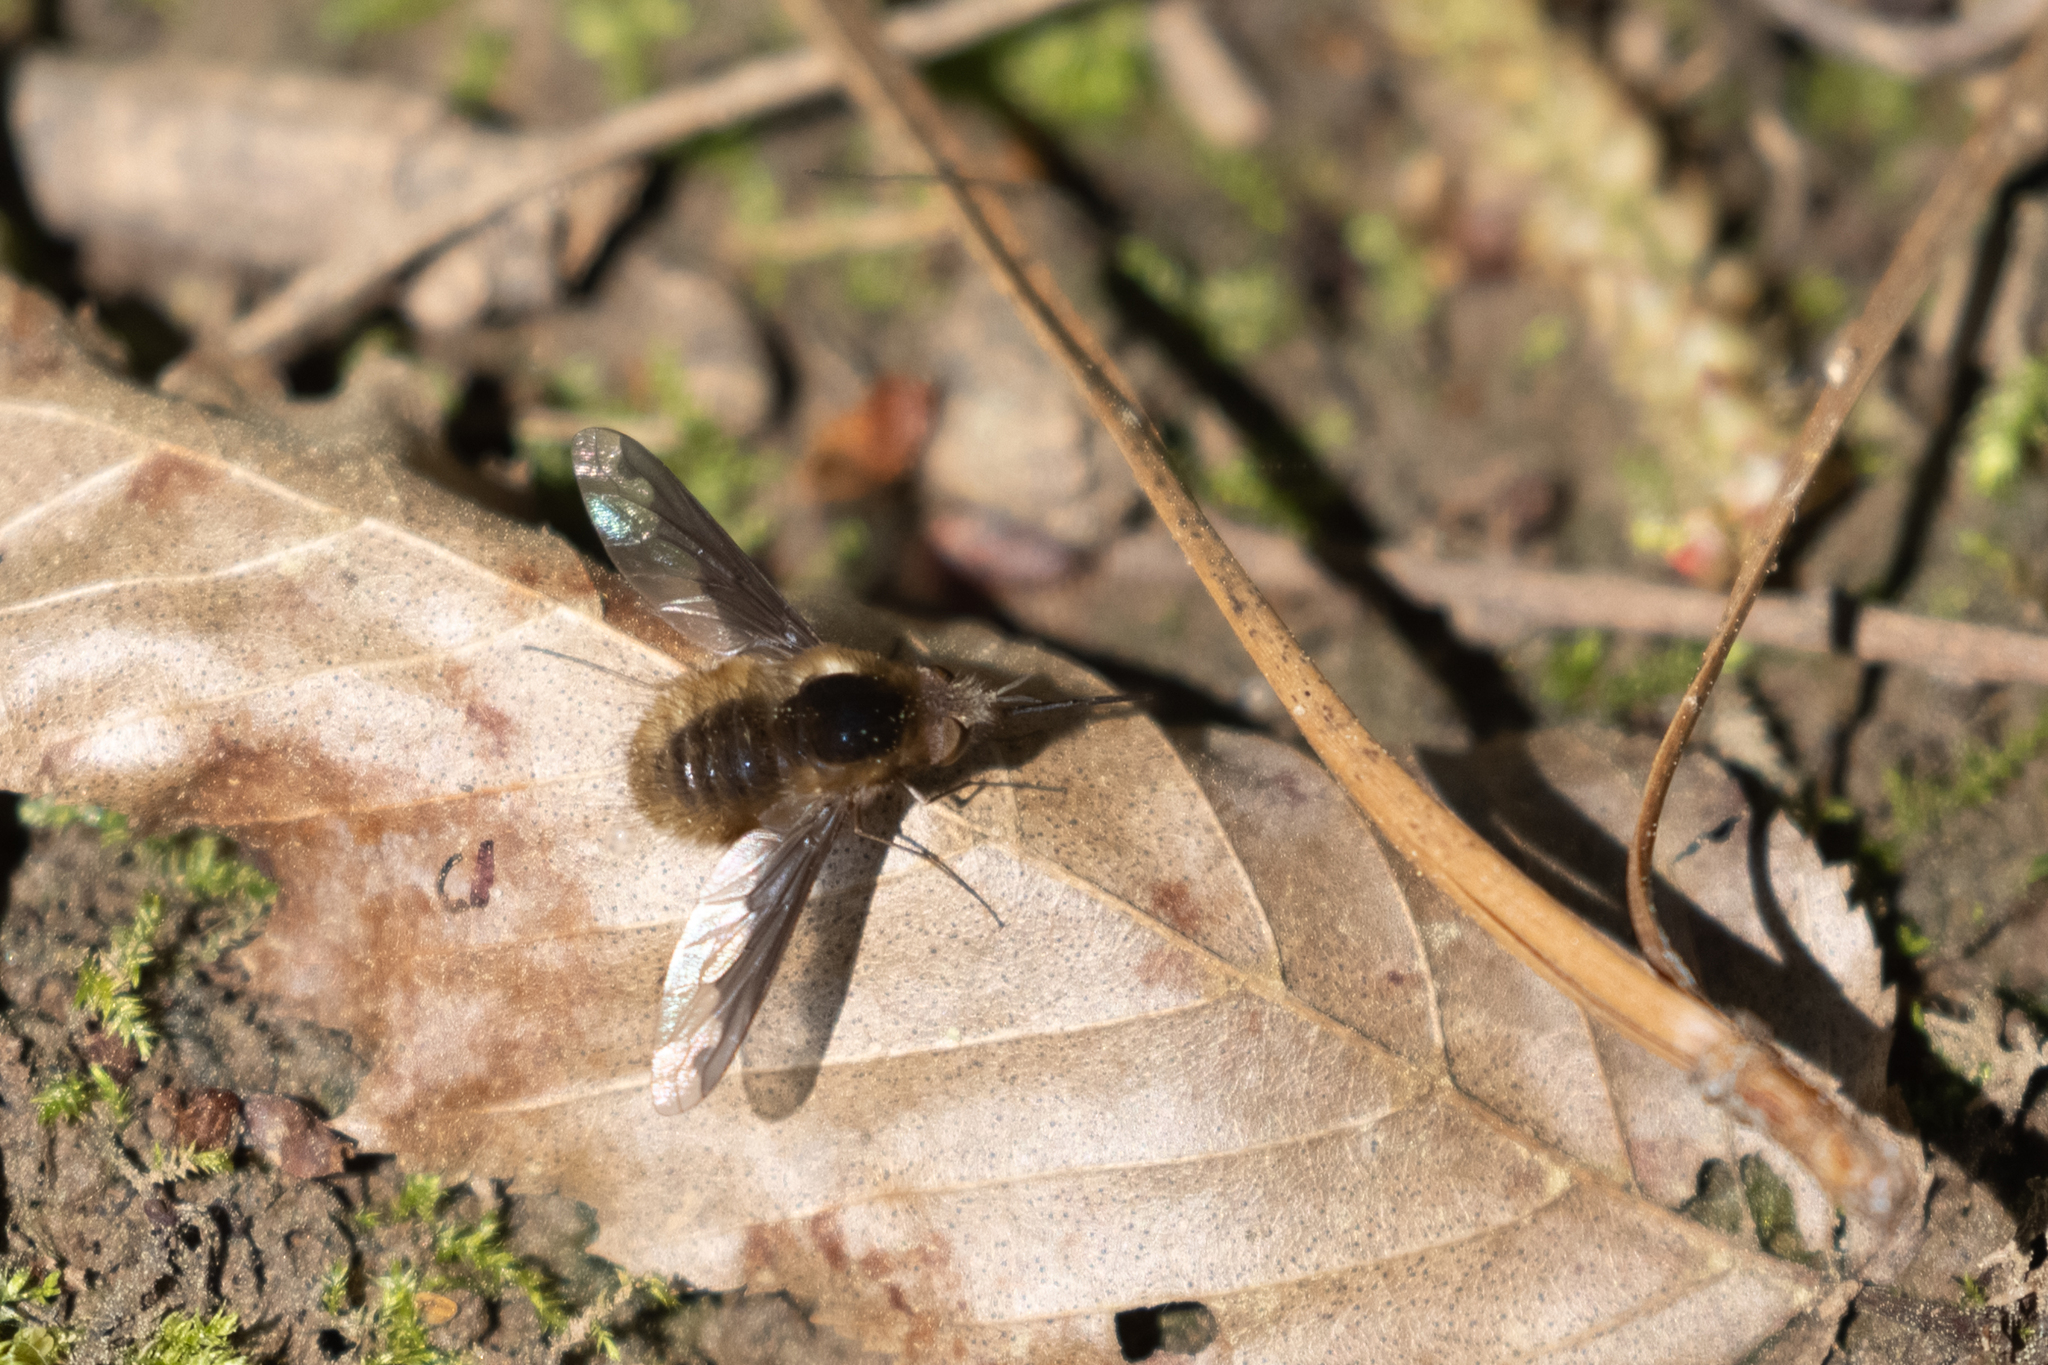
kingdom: Animalia
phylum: Arthropoda
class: Insecta
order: Diptera
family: Bombyliidae
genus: Bombylius
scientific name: Bombylius major
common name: Bee fly
